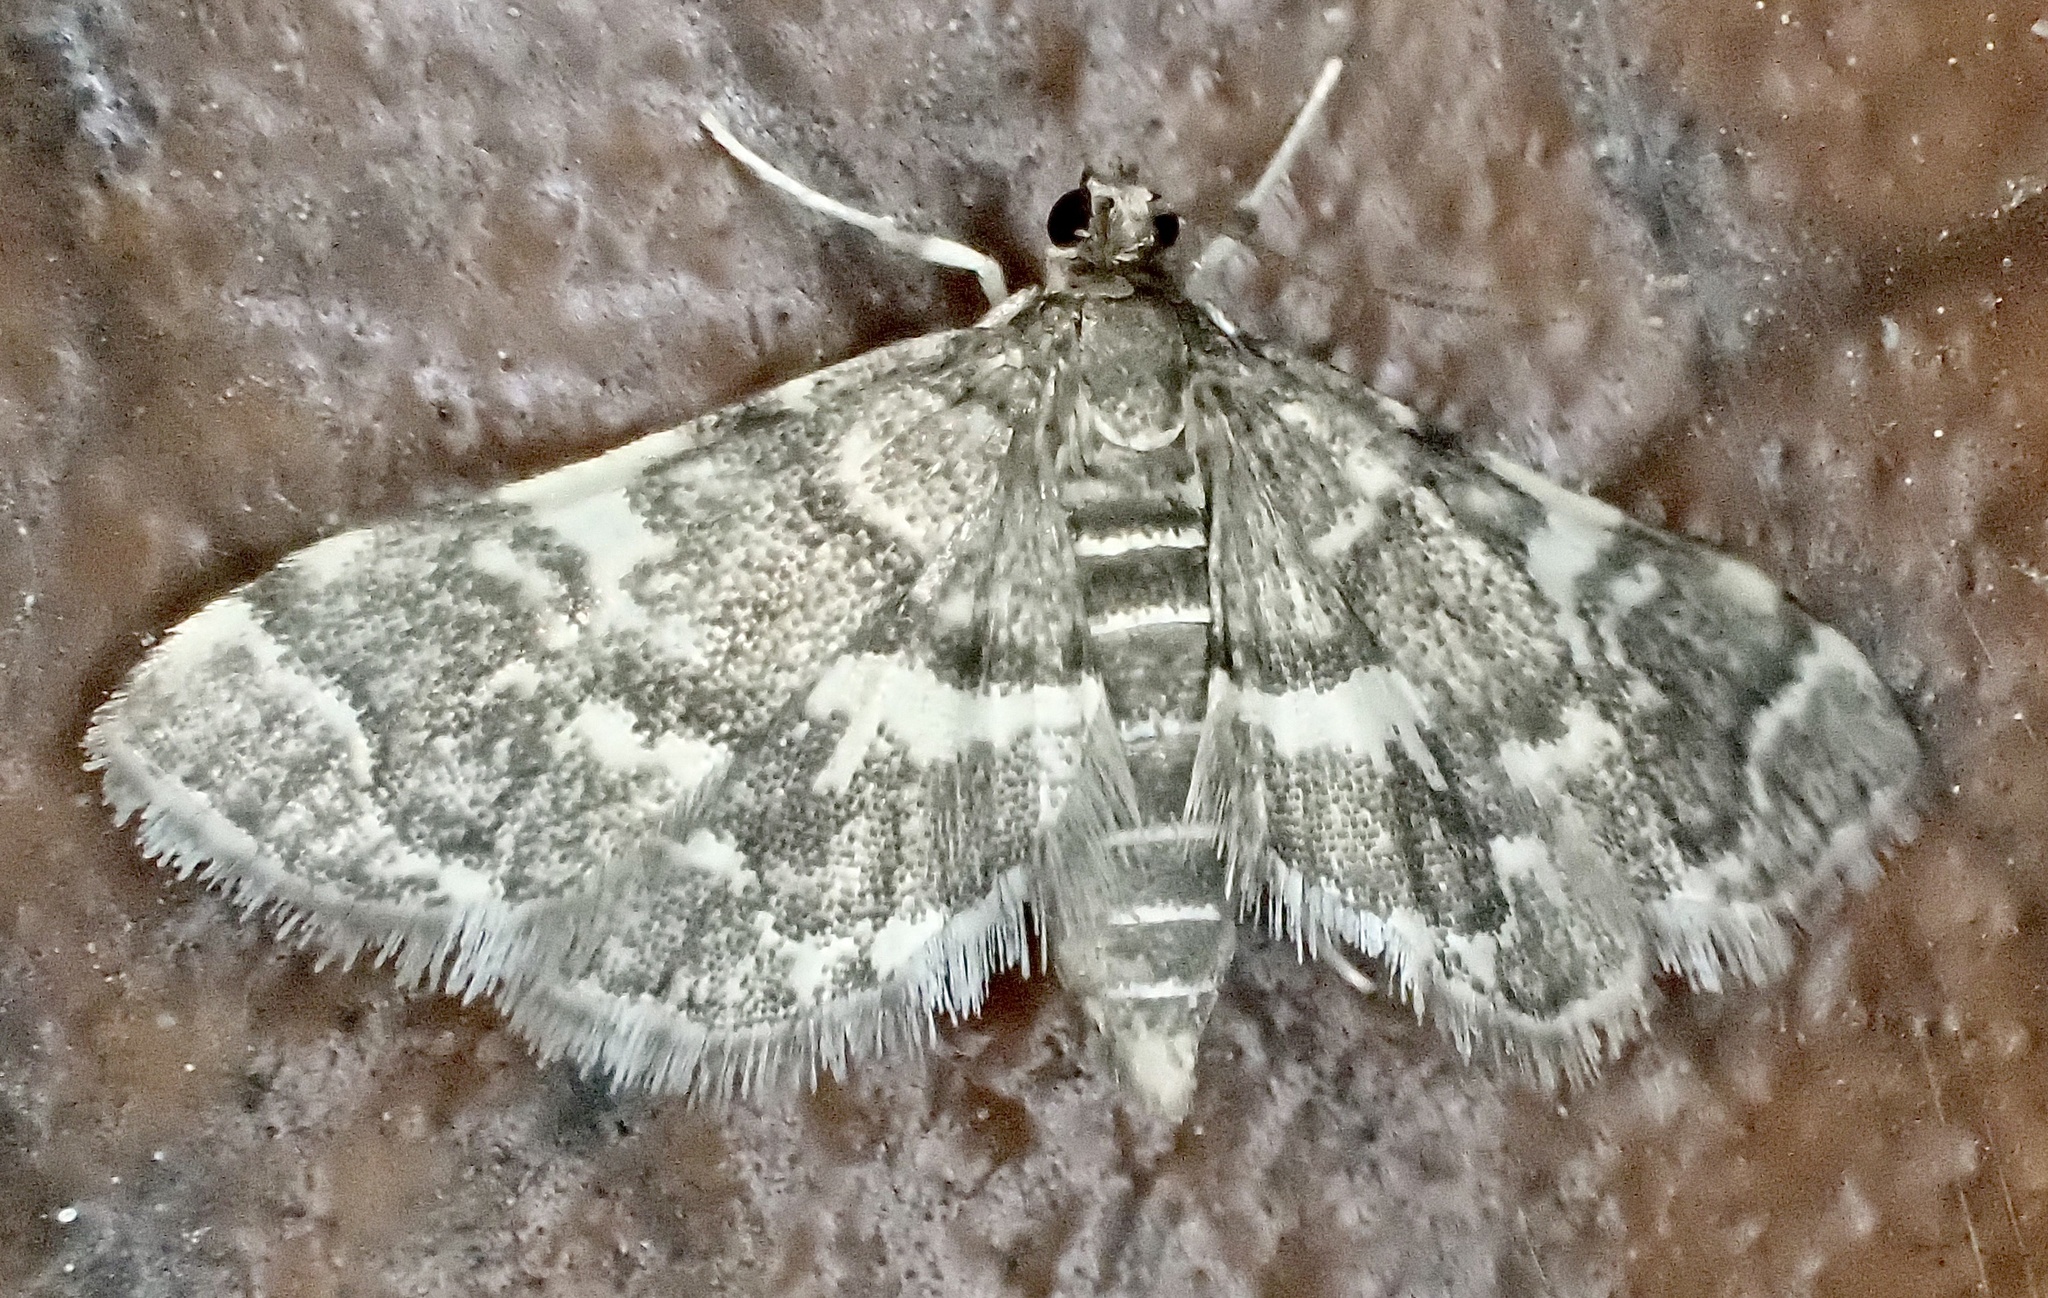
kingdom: Animalia
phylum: Arthropoda
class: Insecta
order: Lepidoptera
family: Crambidae
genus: Anageshna
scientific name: Anageshna primordialis
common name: Yellow-spotted webworm moth
